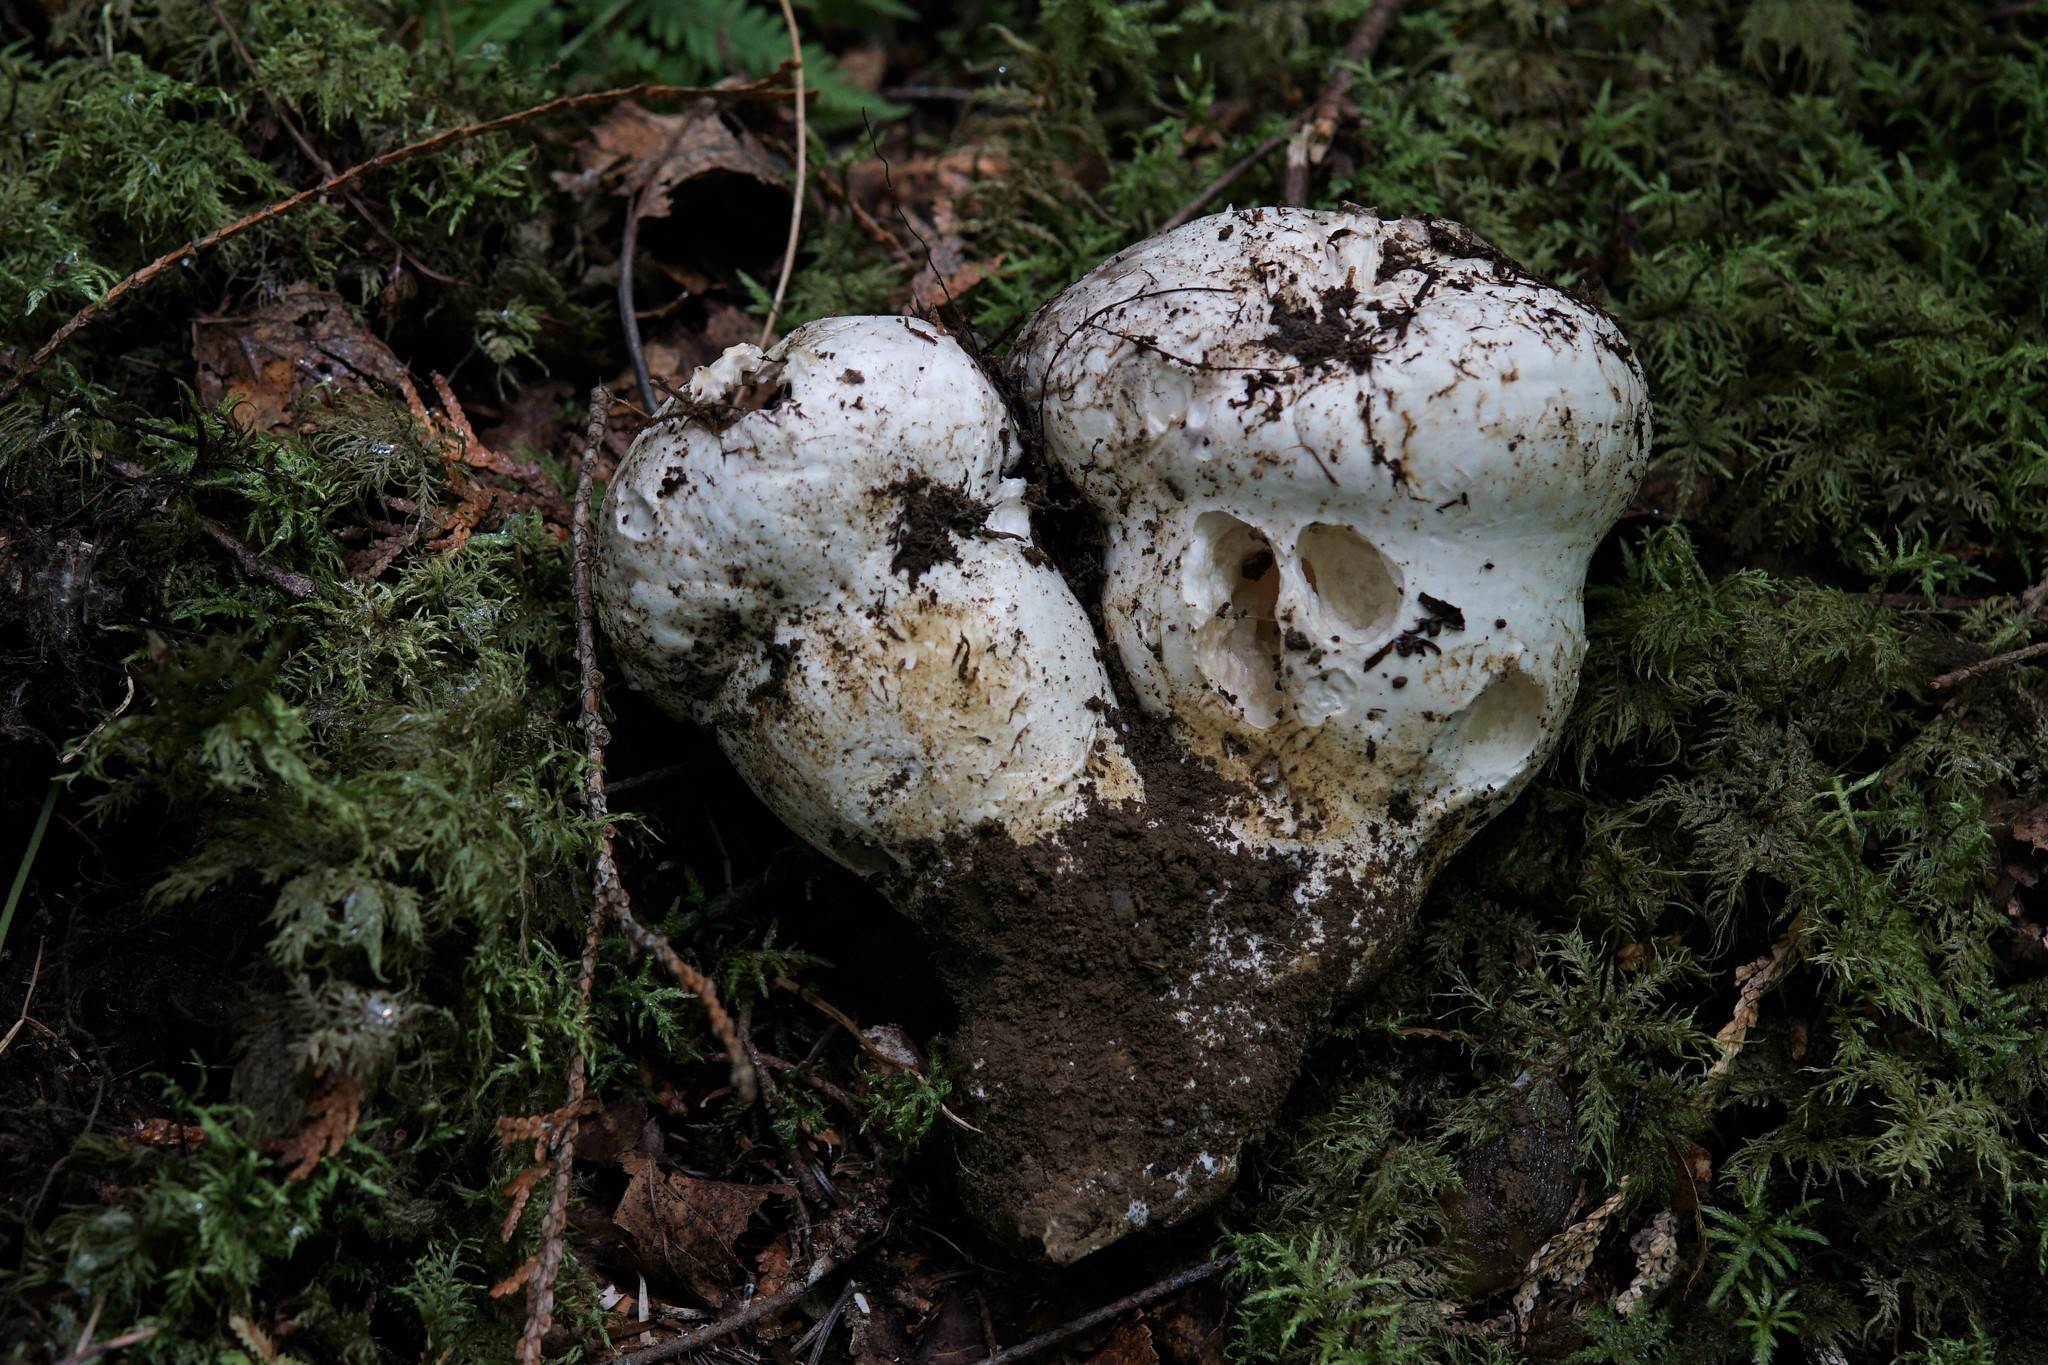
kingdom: Fungi
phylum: Basidiomycota
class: Agaricomycetes
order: Agaricales
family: Biannulariaceae
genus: Catathelasma
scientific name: Catathelasma ventricosum
